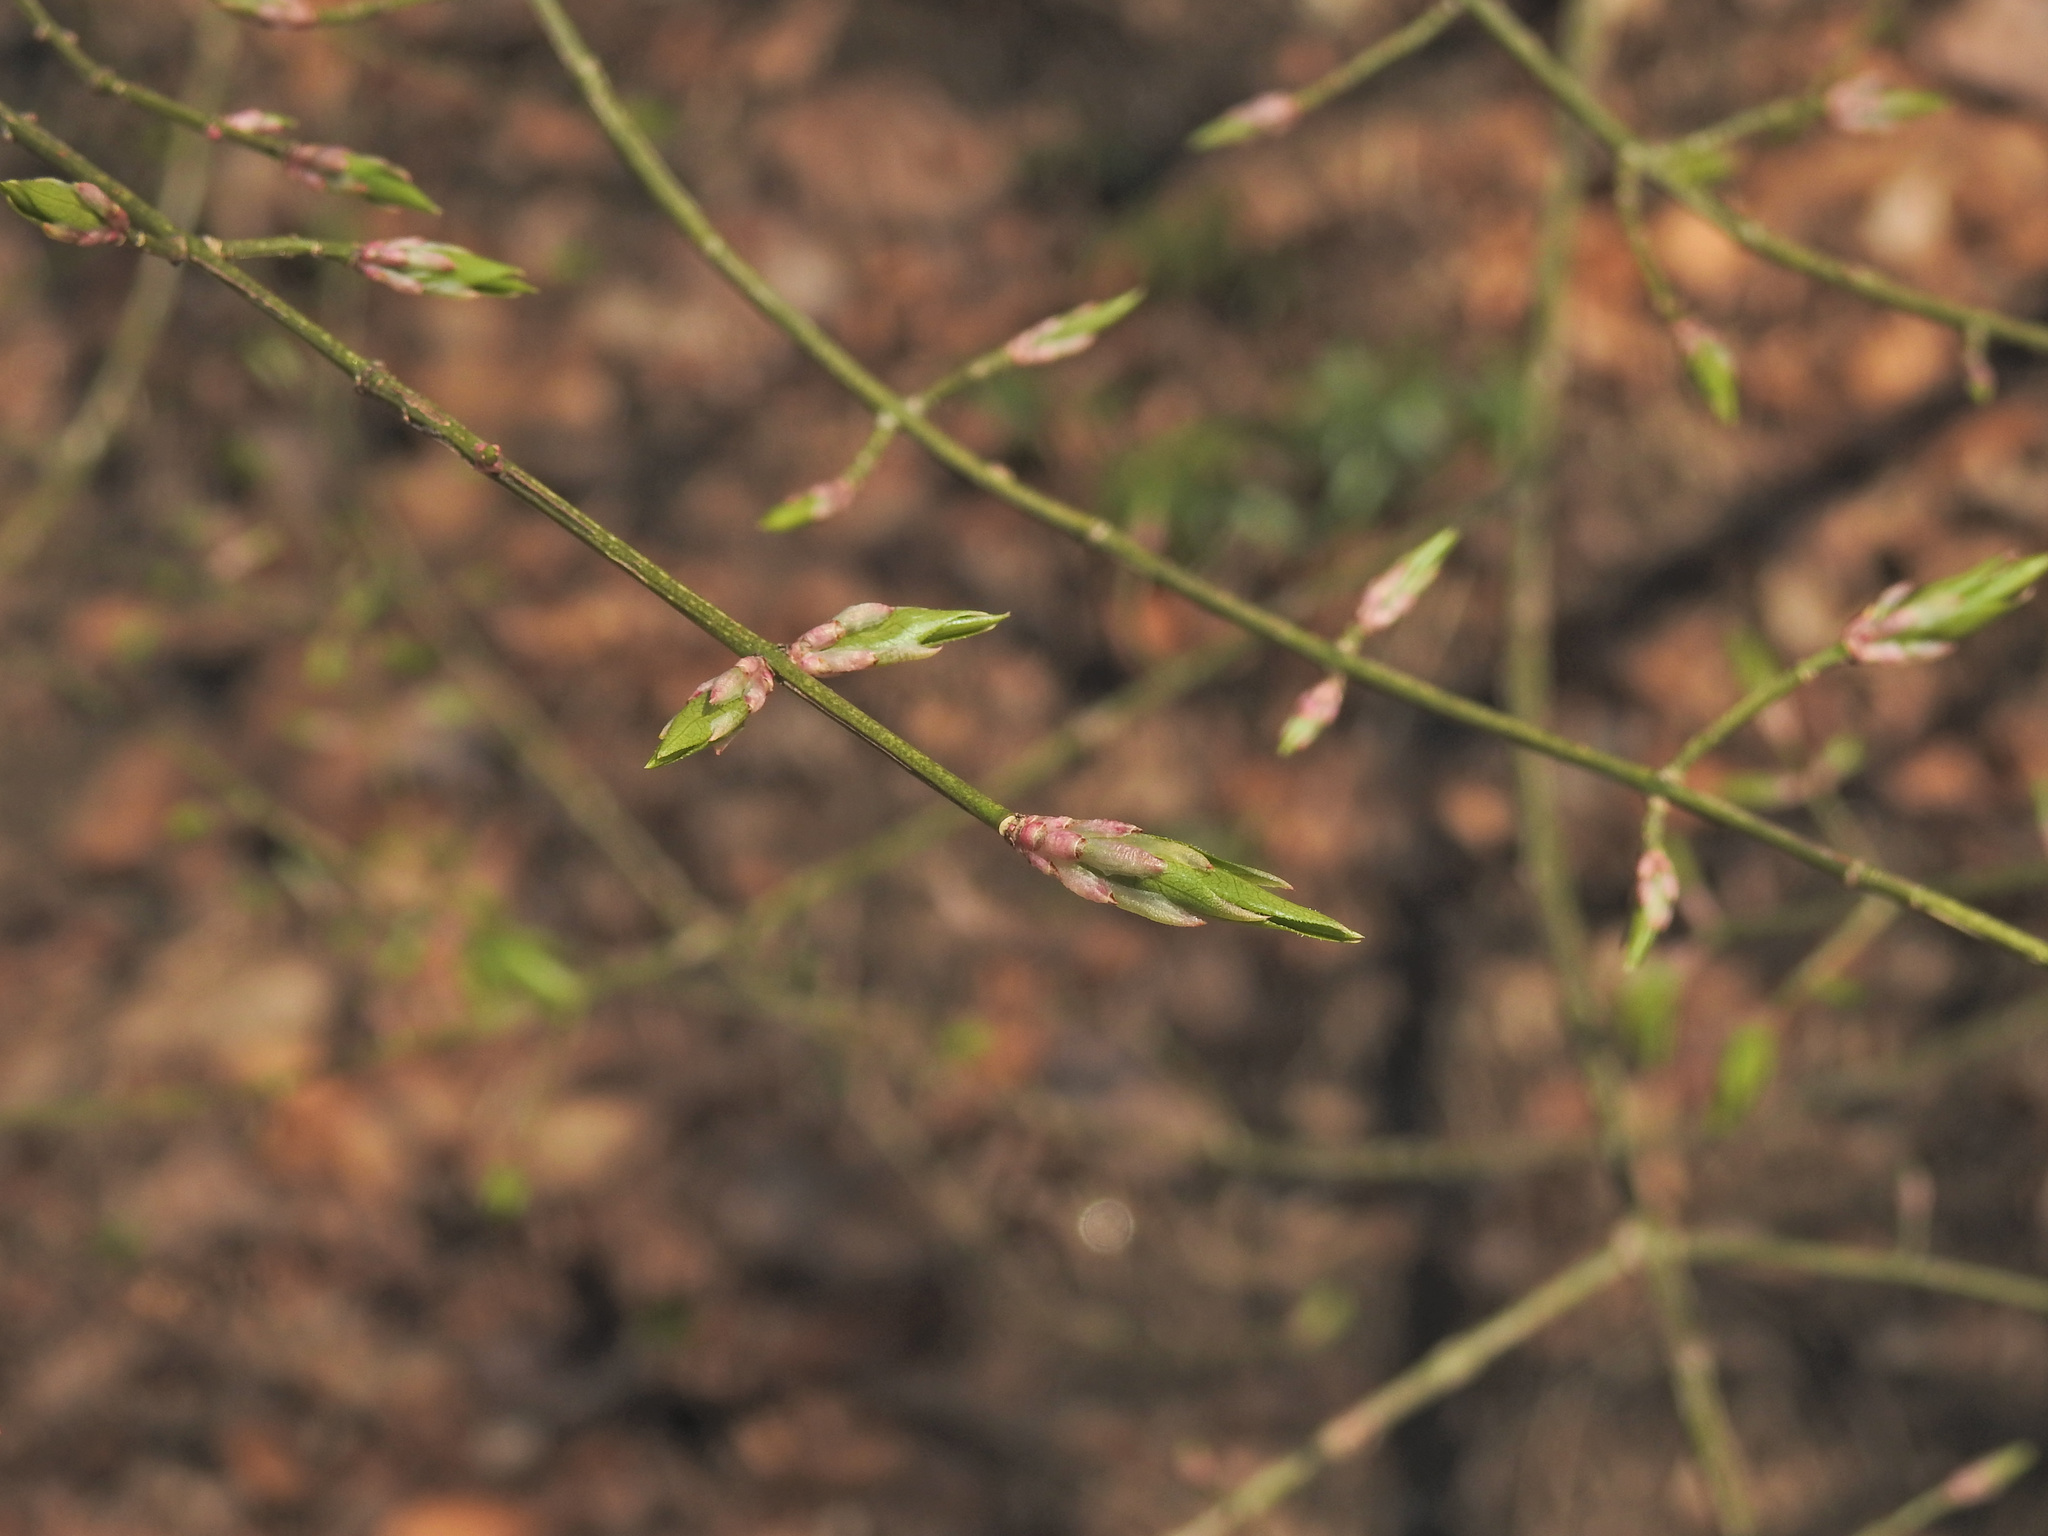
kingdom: Plantae
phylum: Tracheophyta
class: Magnoliopsida
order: Celastrales
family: Celastraceae
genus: Euonymus
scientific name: Euonymus alatus
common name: Winged euonymus
